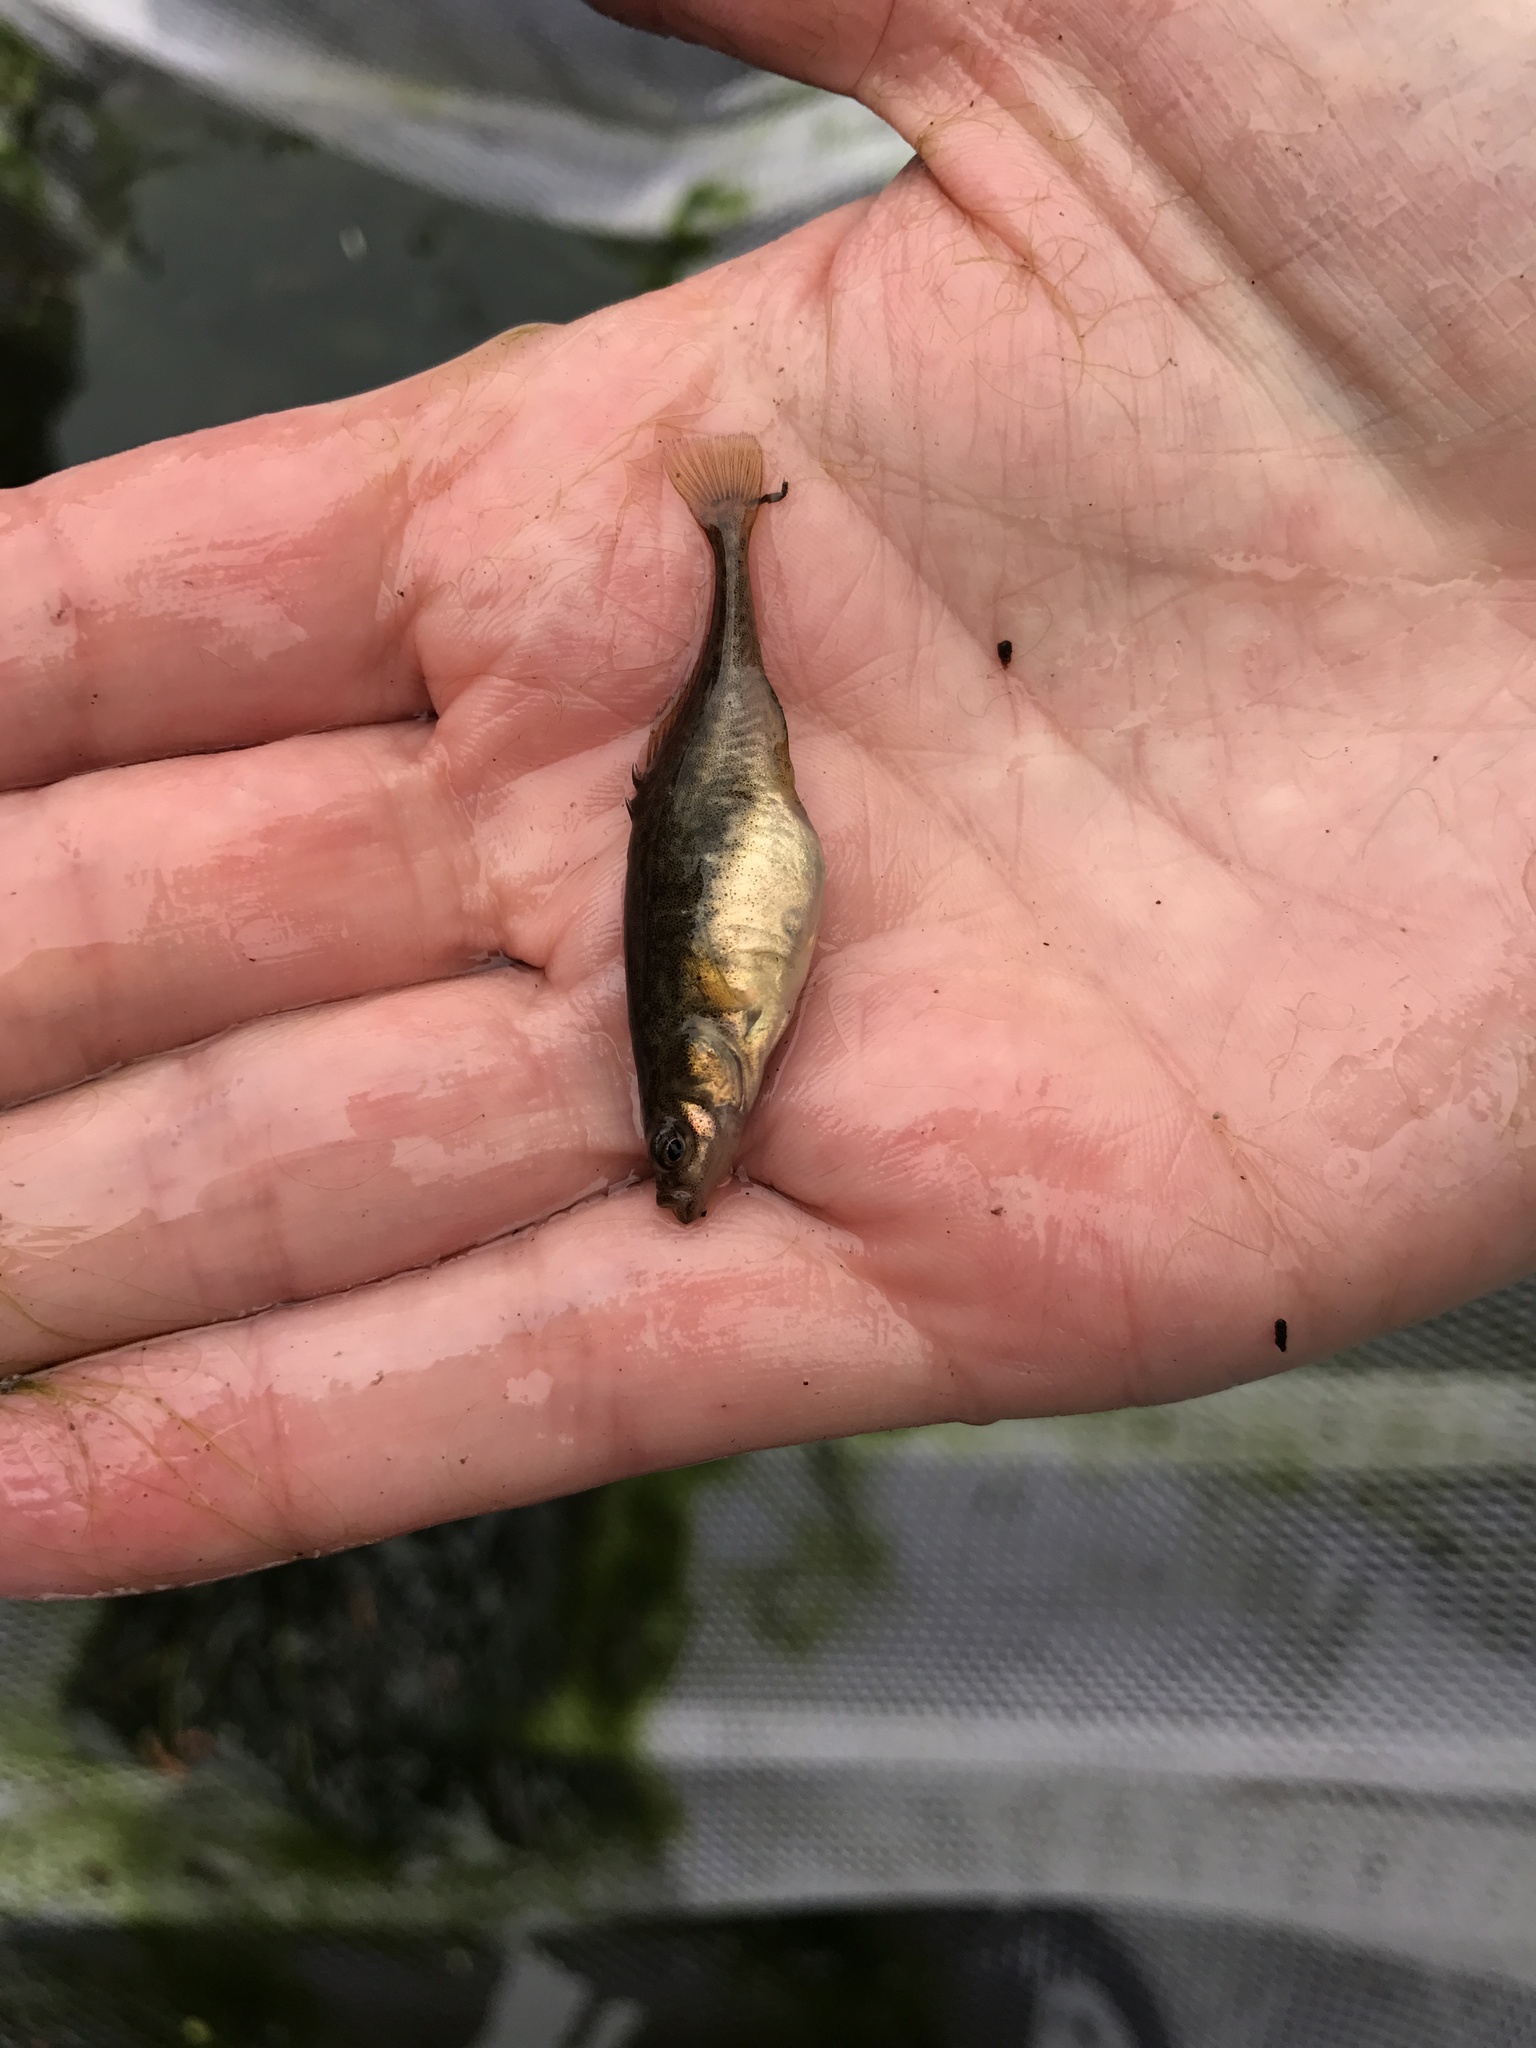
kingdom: Animalia
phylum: Chordata
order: Gasterosteiformes
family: Gasterosteidae
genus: Culaea
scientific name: Culaea inconstans
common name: Brook stickleback
